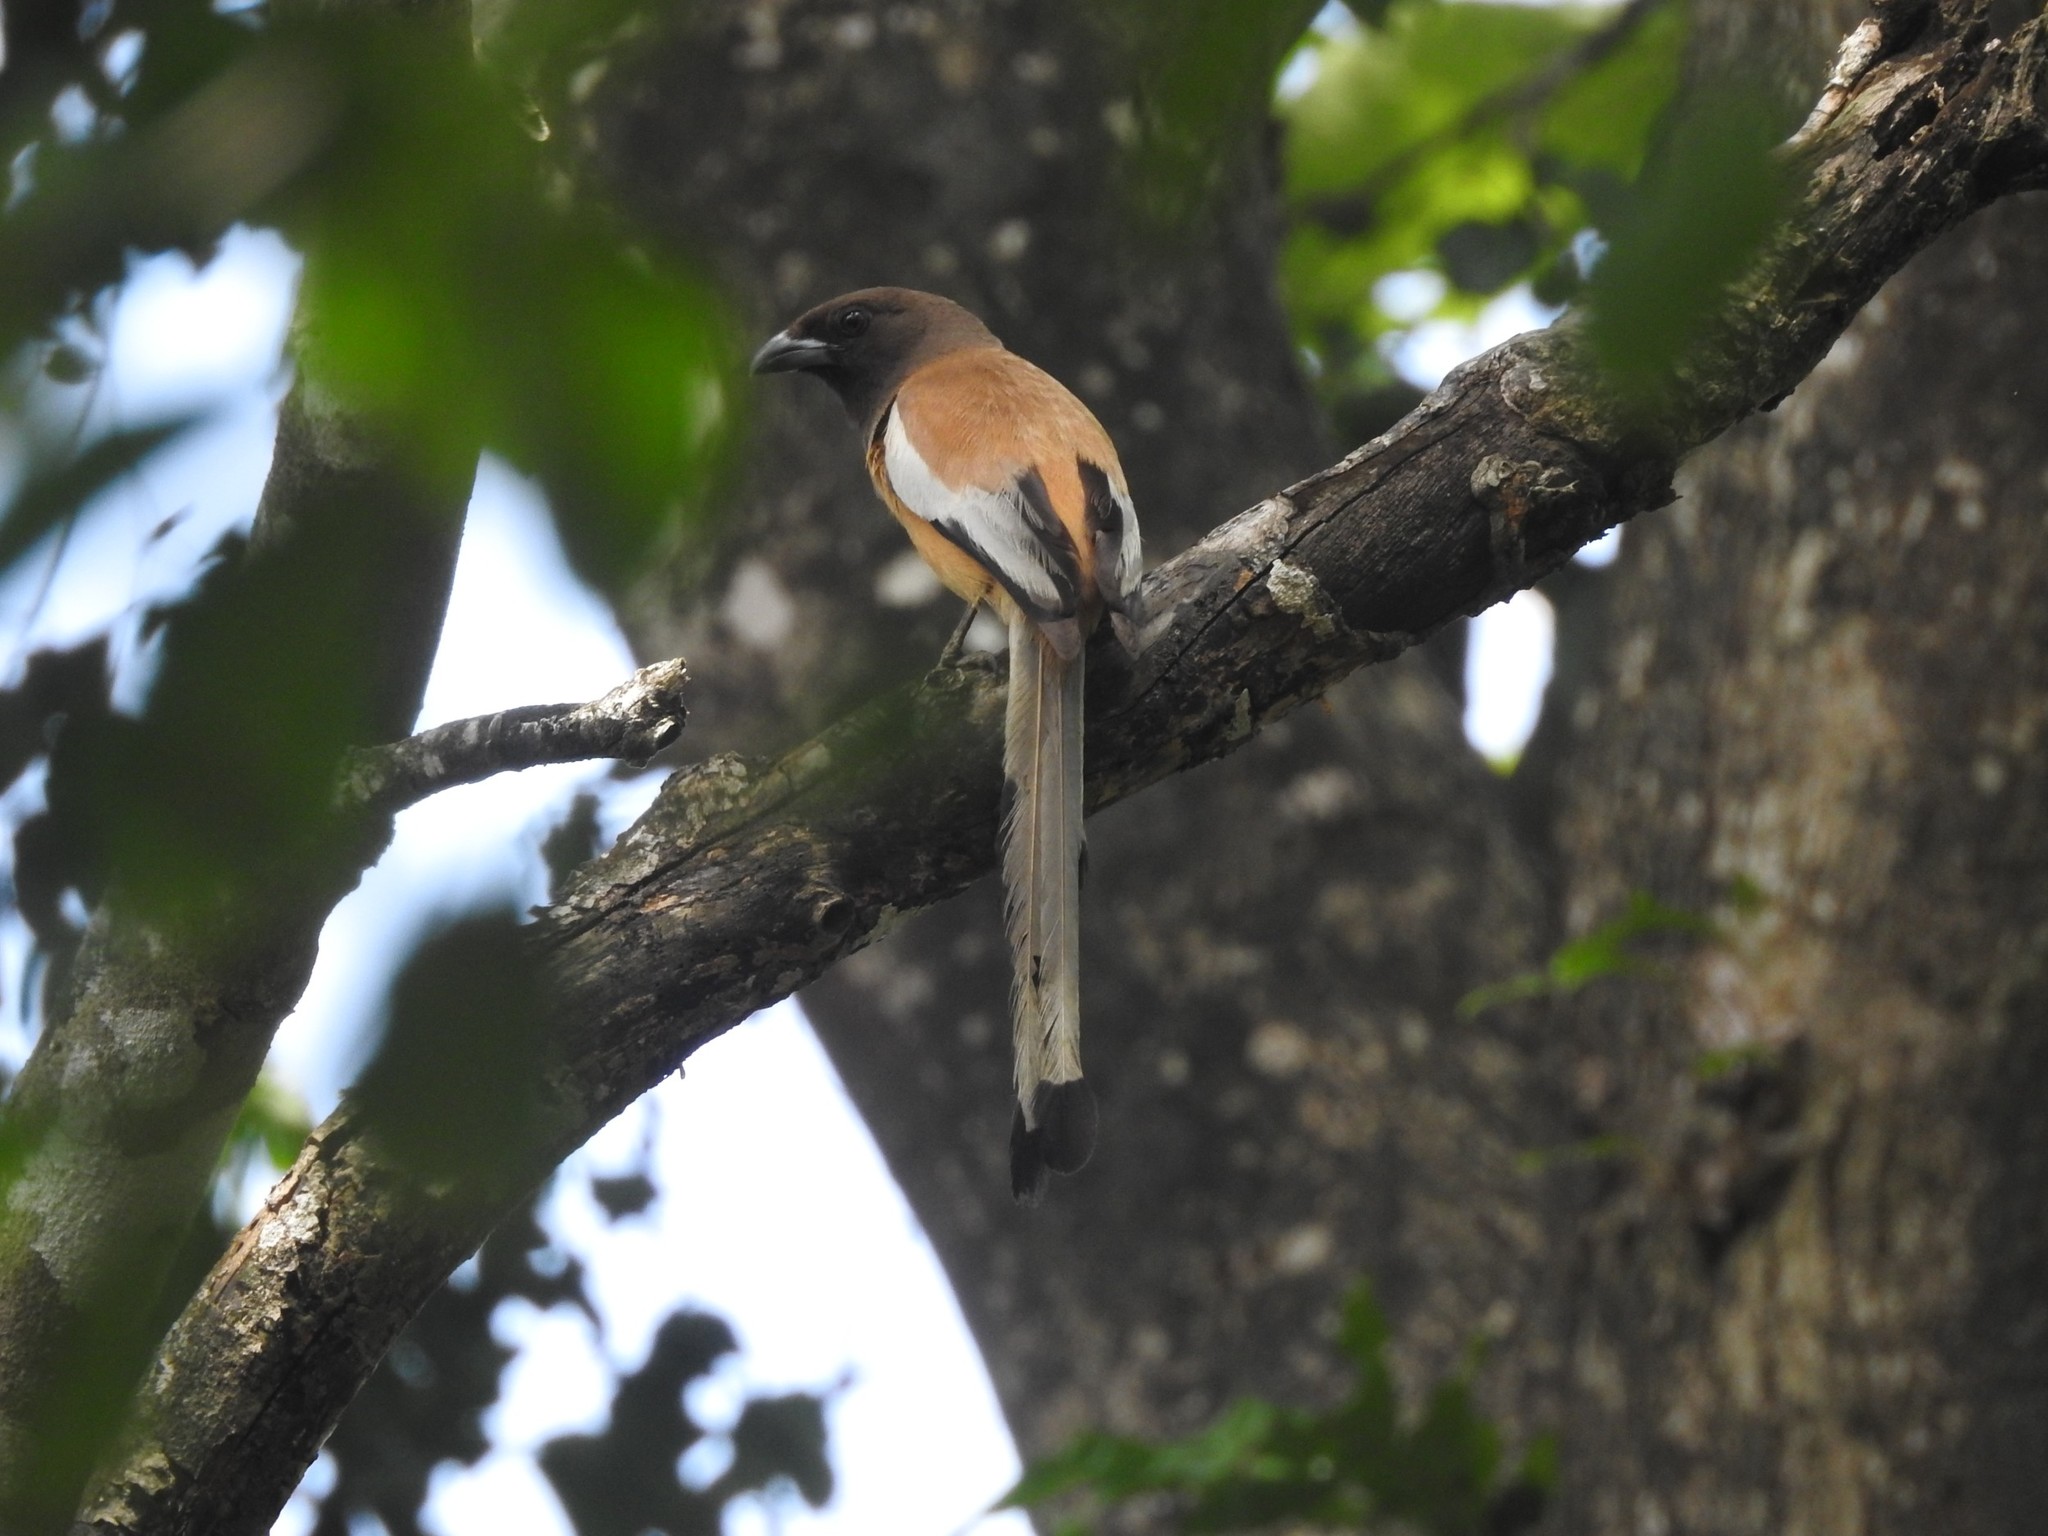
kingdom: Animalia
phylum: Chordata
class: Aves
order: Passeriformes
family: Corvidae
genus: Dendrocitta
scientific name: Dendrocitta vagabunda
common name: Rufous treepie
